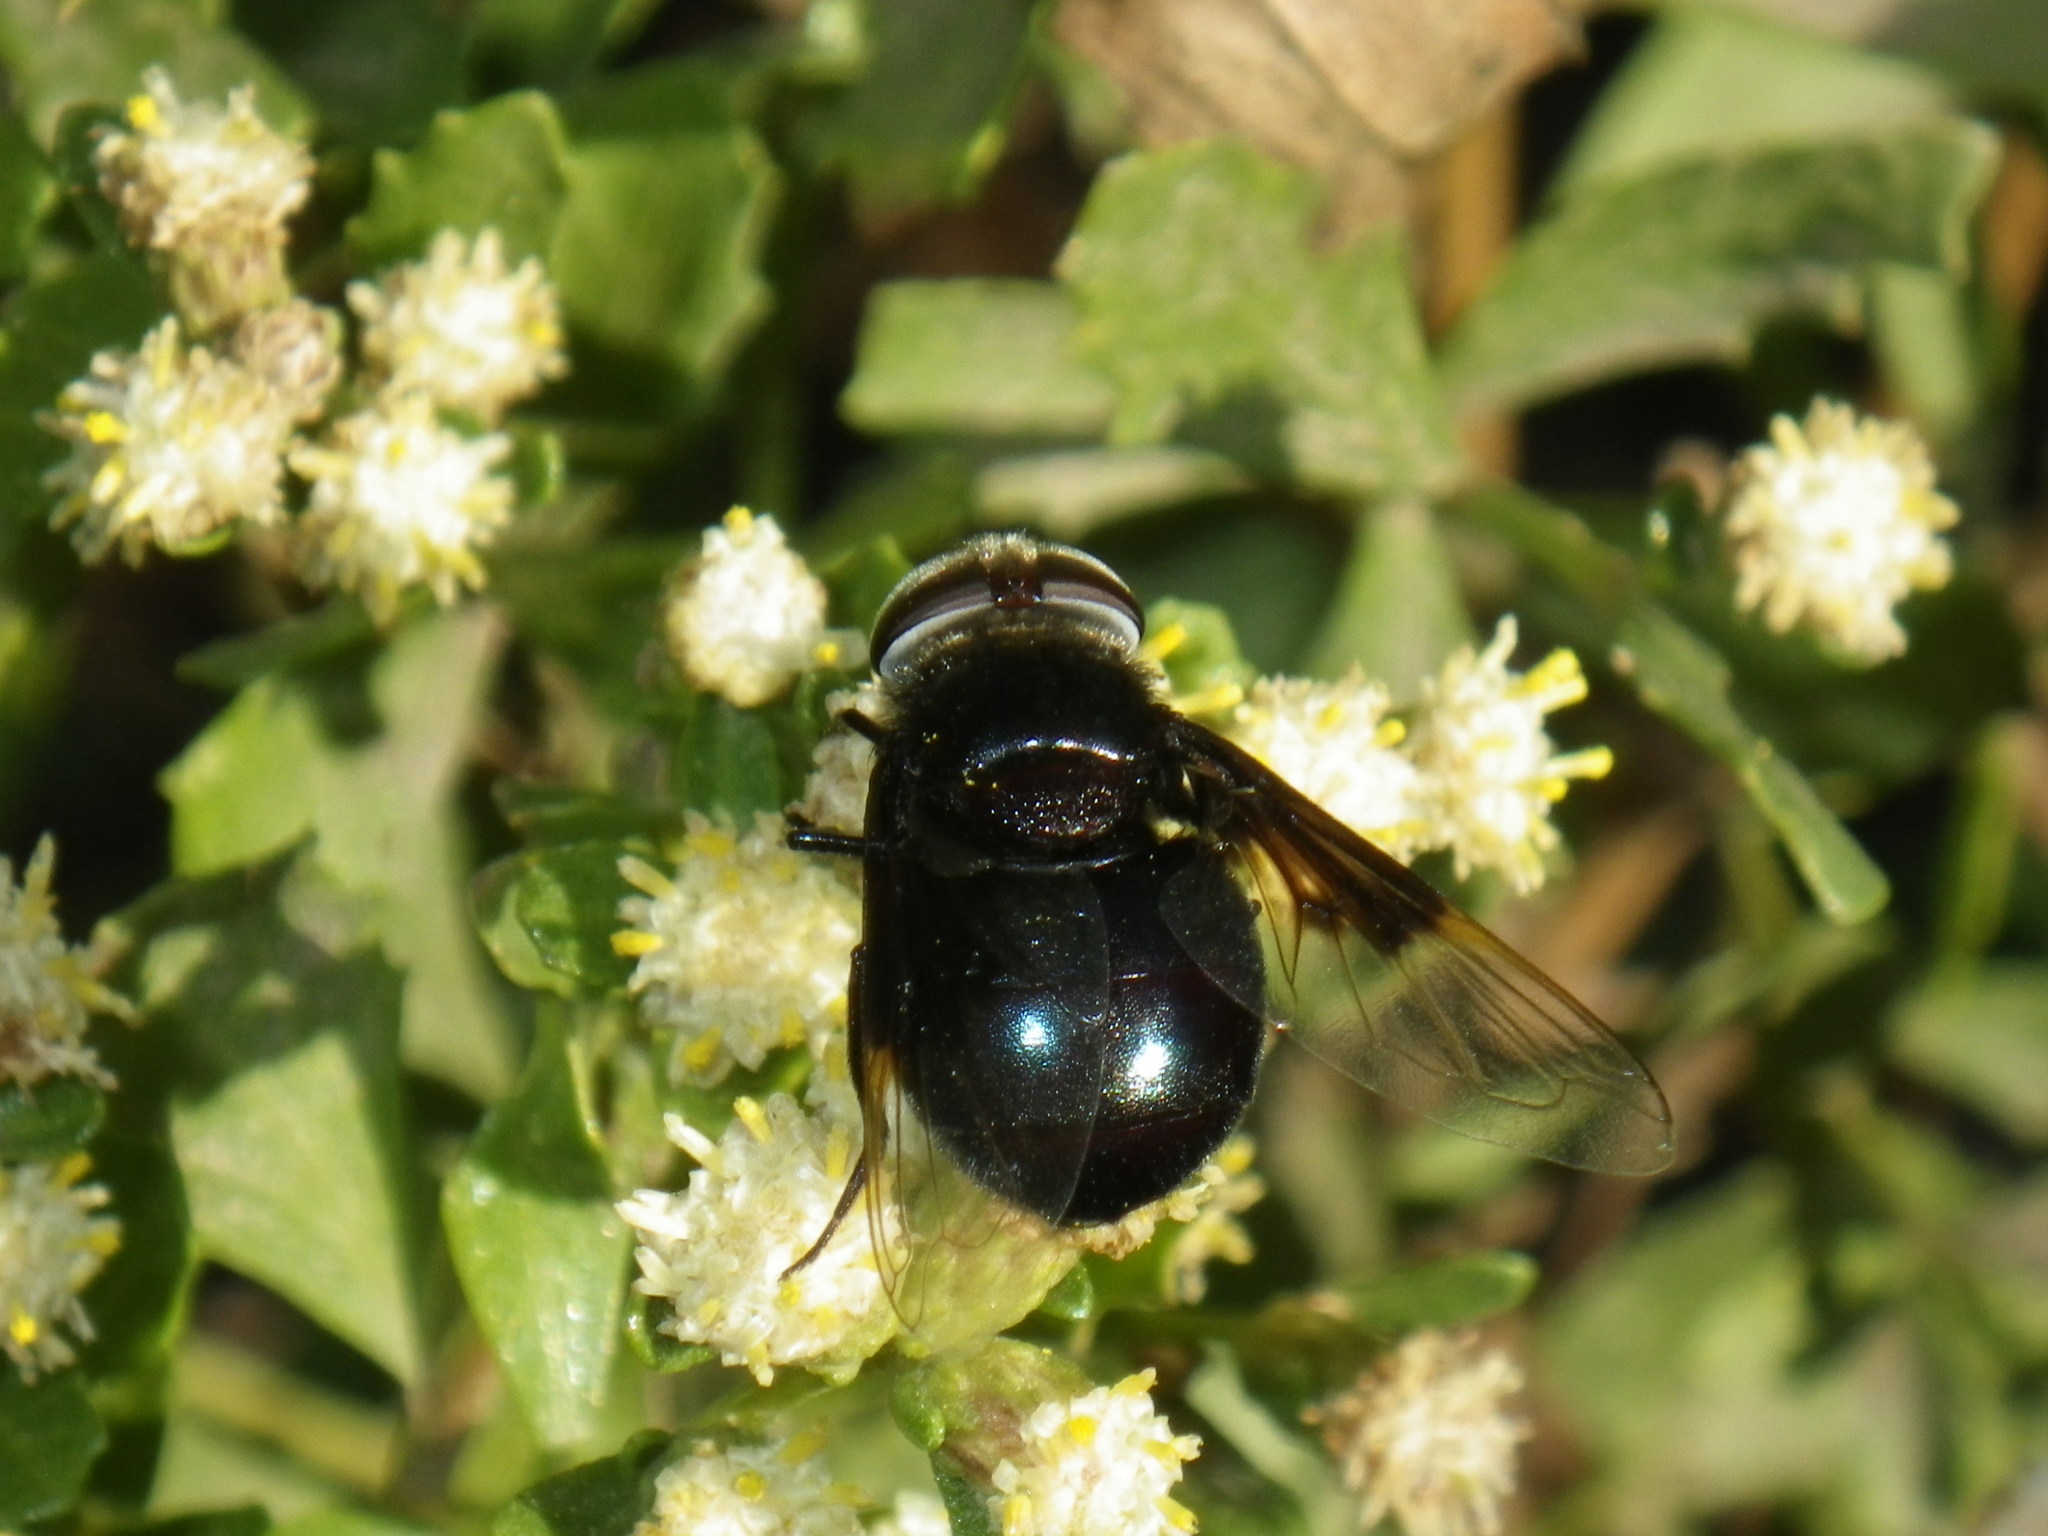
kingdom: Animalia
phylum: Arthropoda
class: Insecta
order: Diptera
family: Syrphidae
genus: Copestylum
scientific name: Copestylum mexicanum
